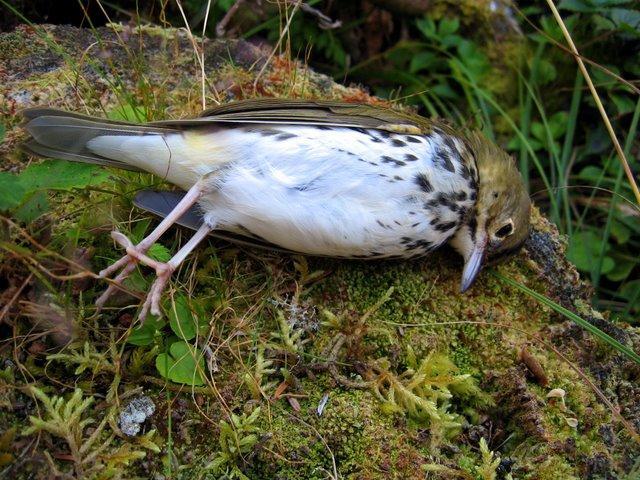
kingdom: Animalia
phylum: Chordata
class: Aves
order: Passeriformes
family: Parulidae
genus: Seiurus
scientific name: Seiurus aurocapilla
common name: Ovenbird
